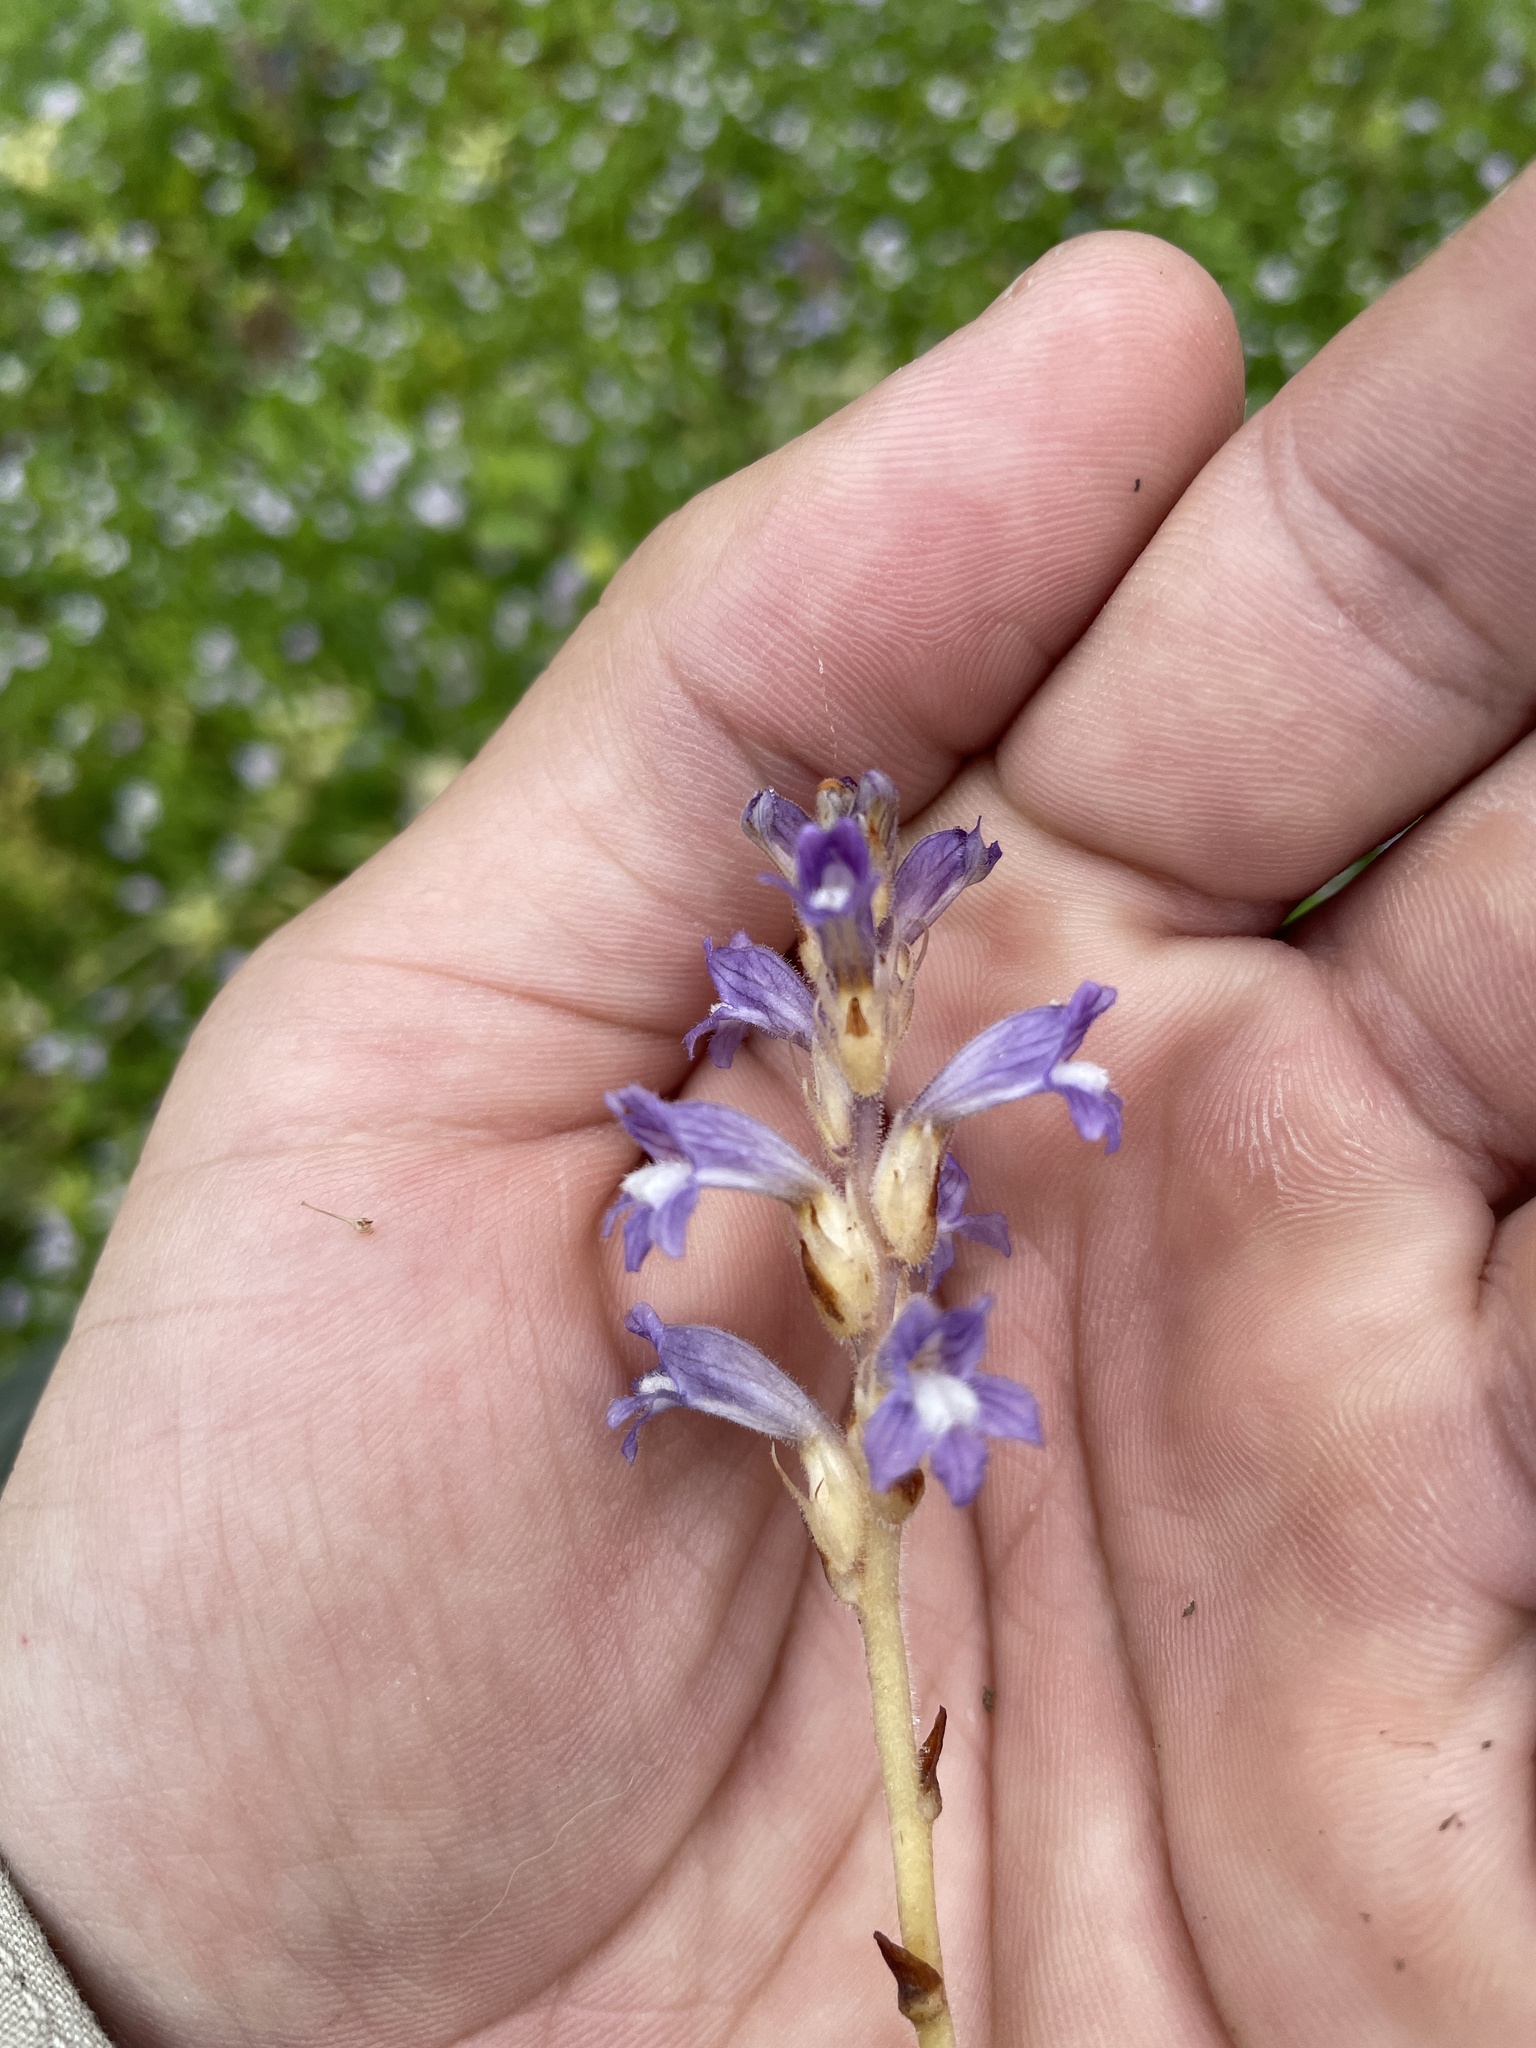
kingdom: Plantae
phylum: Tracheophyta
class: Magnoliopsida
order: Lamiales
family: Orobanchaceae
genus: Phelipanche
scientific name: Phelipanche mutelii
